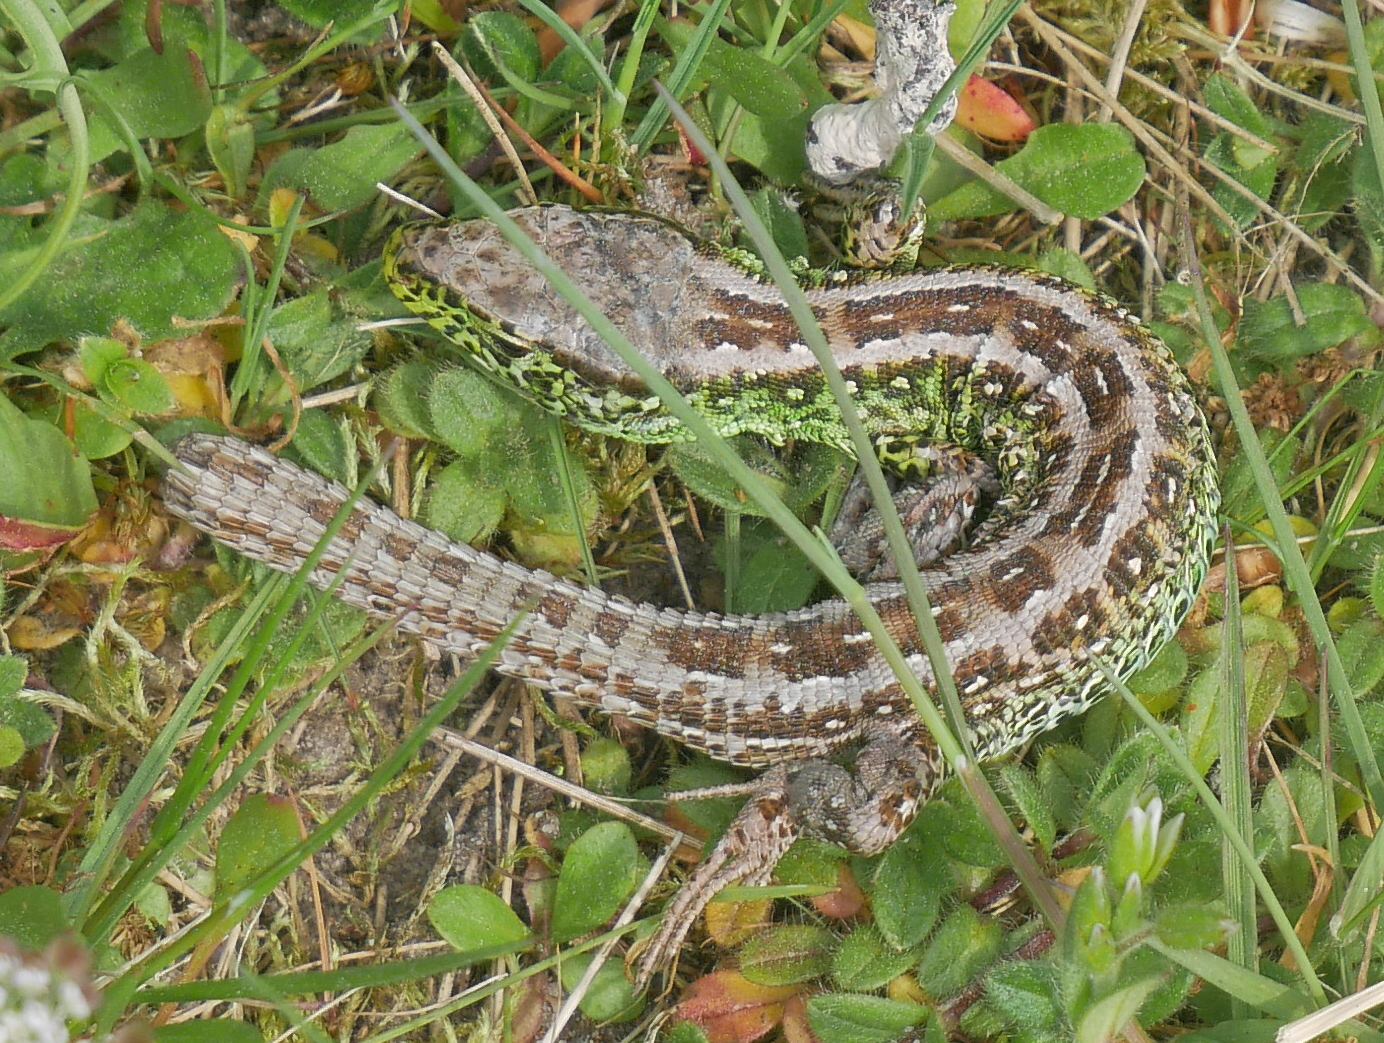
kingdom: Animalia
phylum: Chordata
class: Squamata
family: Lacertidae
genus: Lacerta
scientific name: Lacerta agilis
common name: Sand lizard
